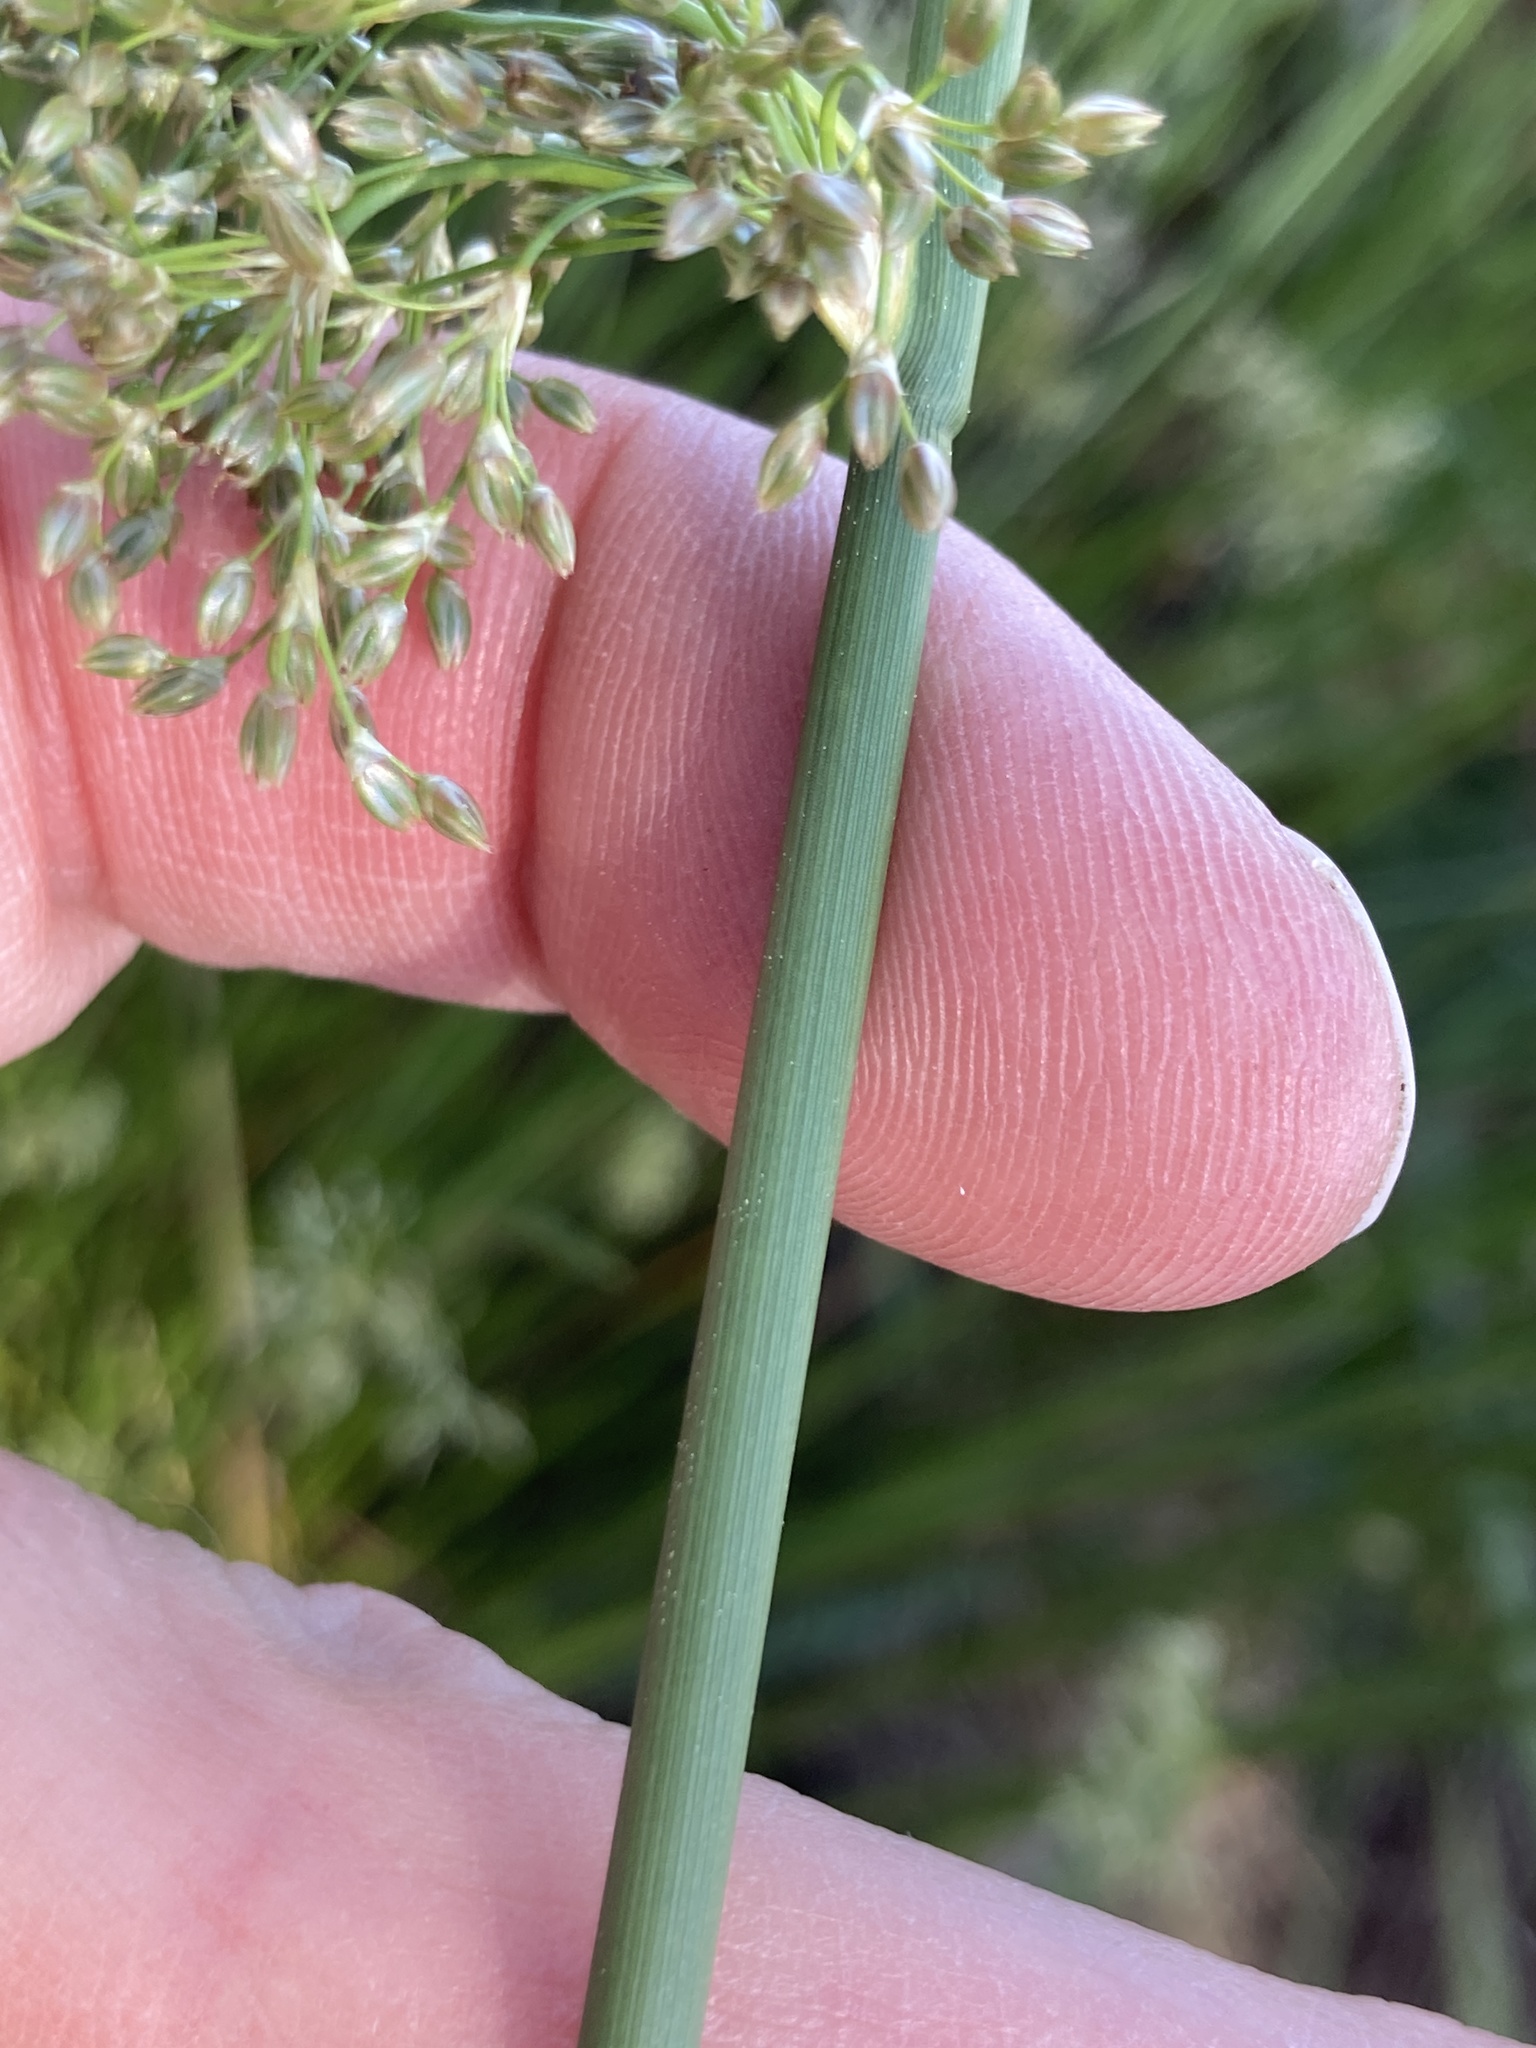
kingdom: Plantae
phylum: Tracheophyta
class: Liliopsida
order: Poales
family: Juncaceae
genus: Juncus
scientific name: Juncus effusus
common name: Soft rush
